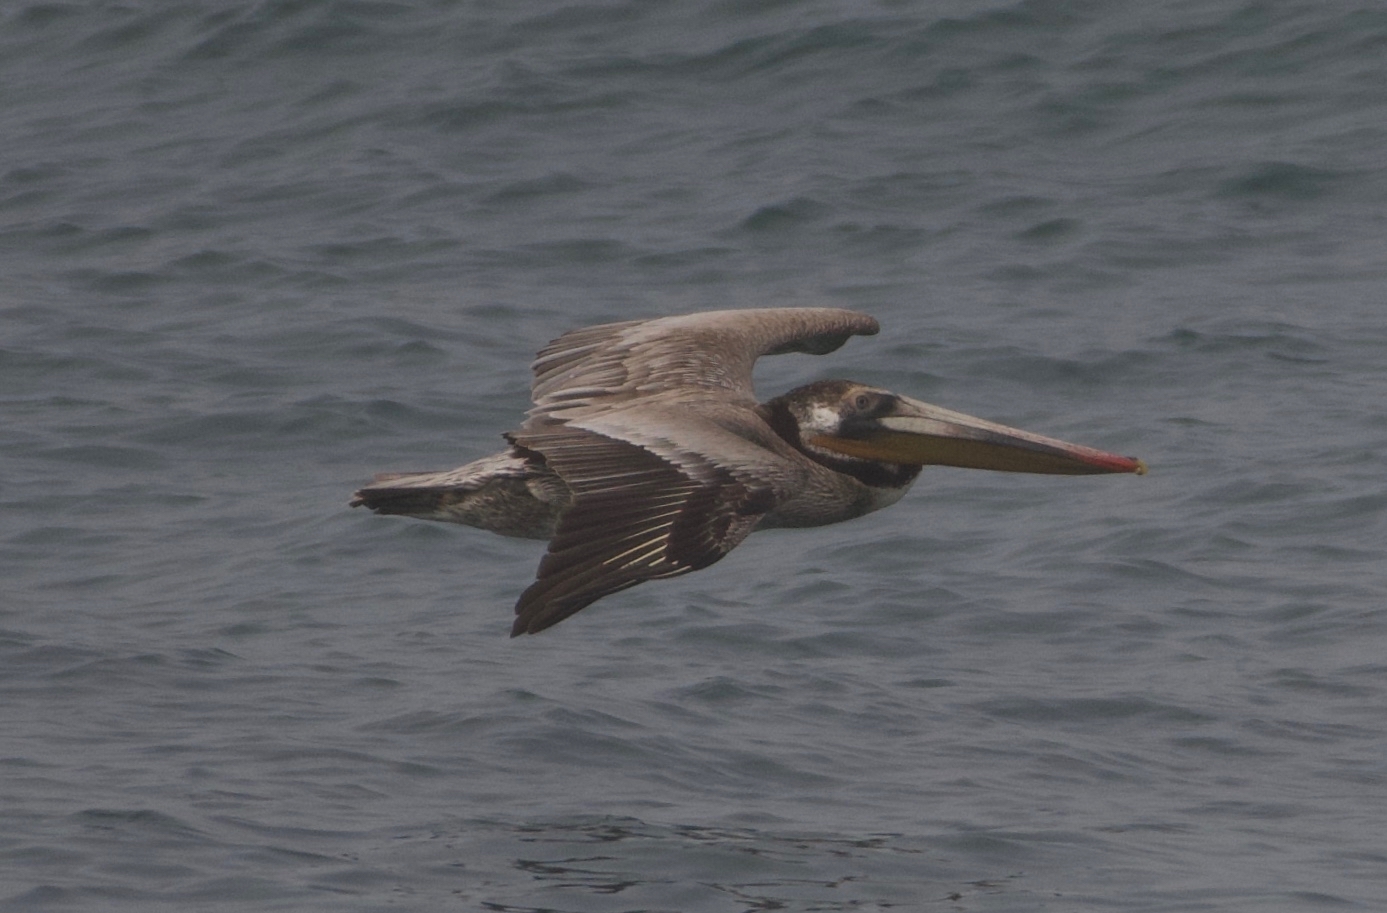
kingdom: Animalia
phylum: Chordata
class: Aves
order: Pelecaniformes
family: Pelecanidae
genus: Pelecanus
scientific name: Pelecanus occidentalis
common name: Brown pelican
